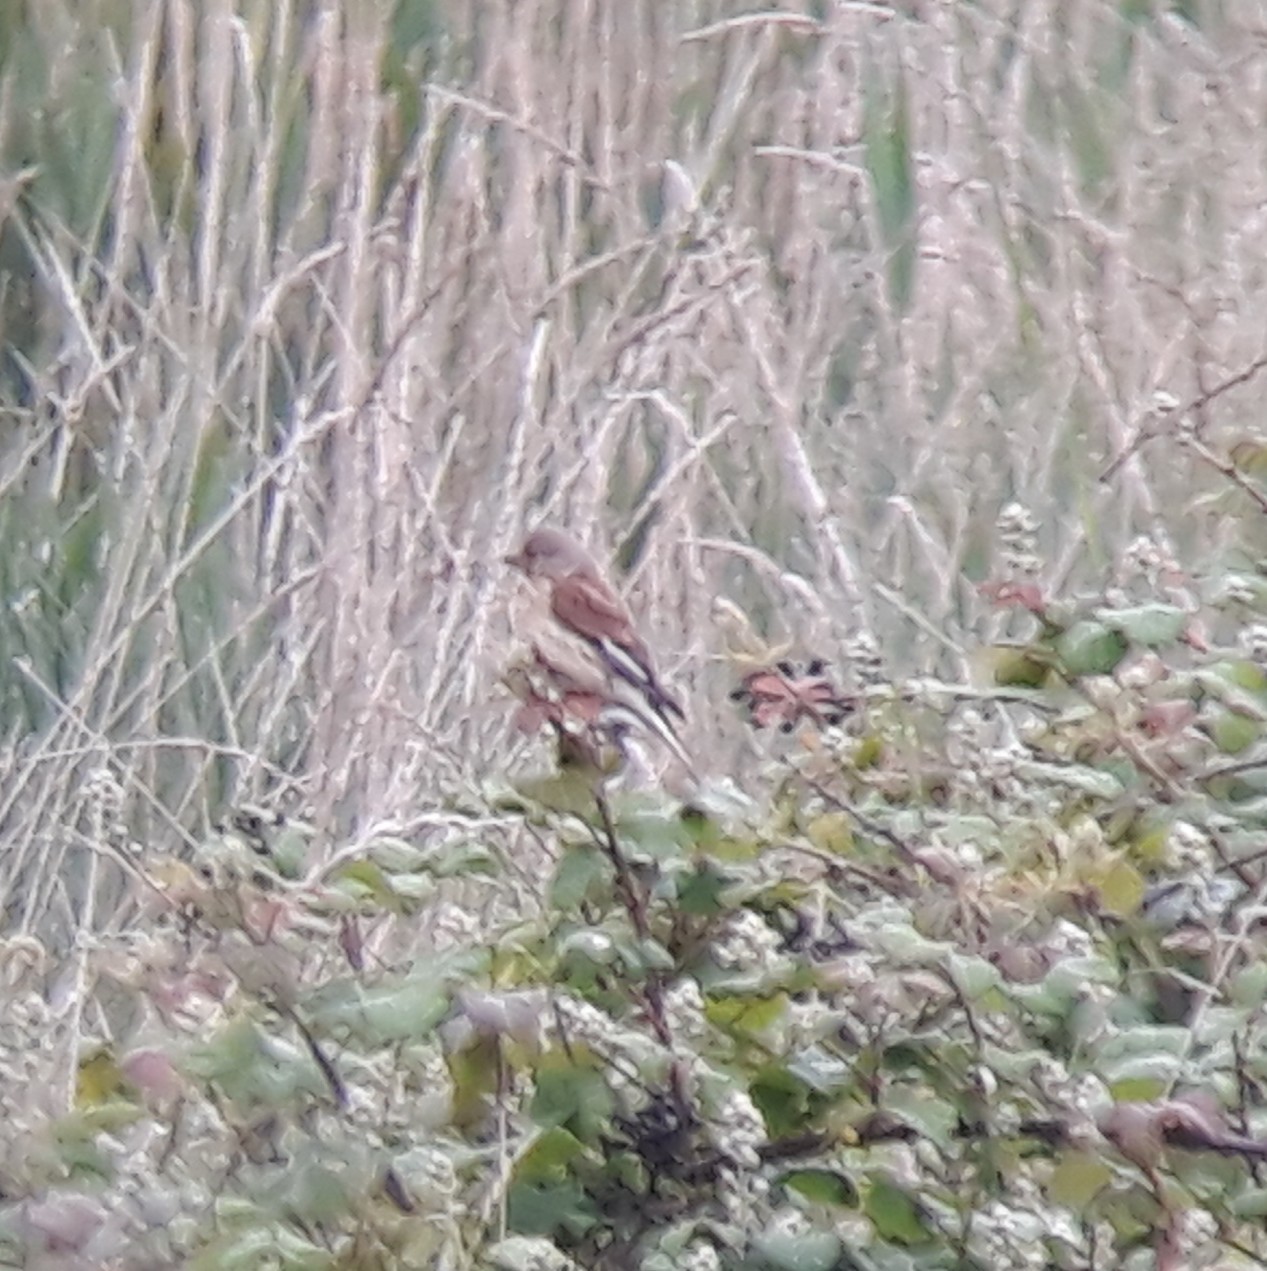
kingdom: Animalia
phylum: Chordata
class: Aves
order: Passeriformes
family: Fringillidae
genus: Linaria
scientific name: Linaria cannabina
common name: Common linnet
